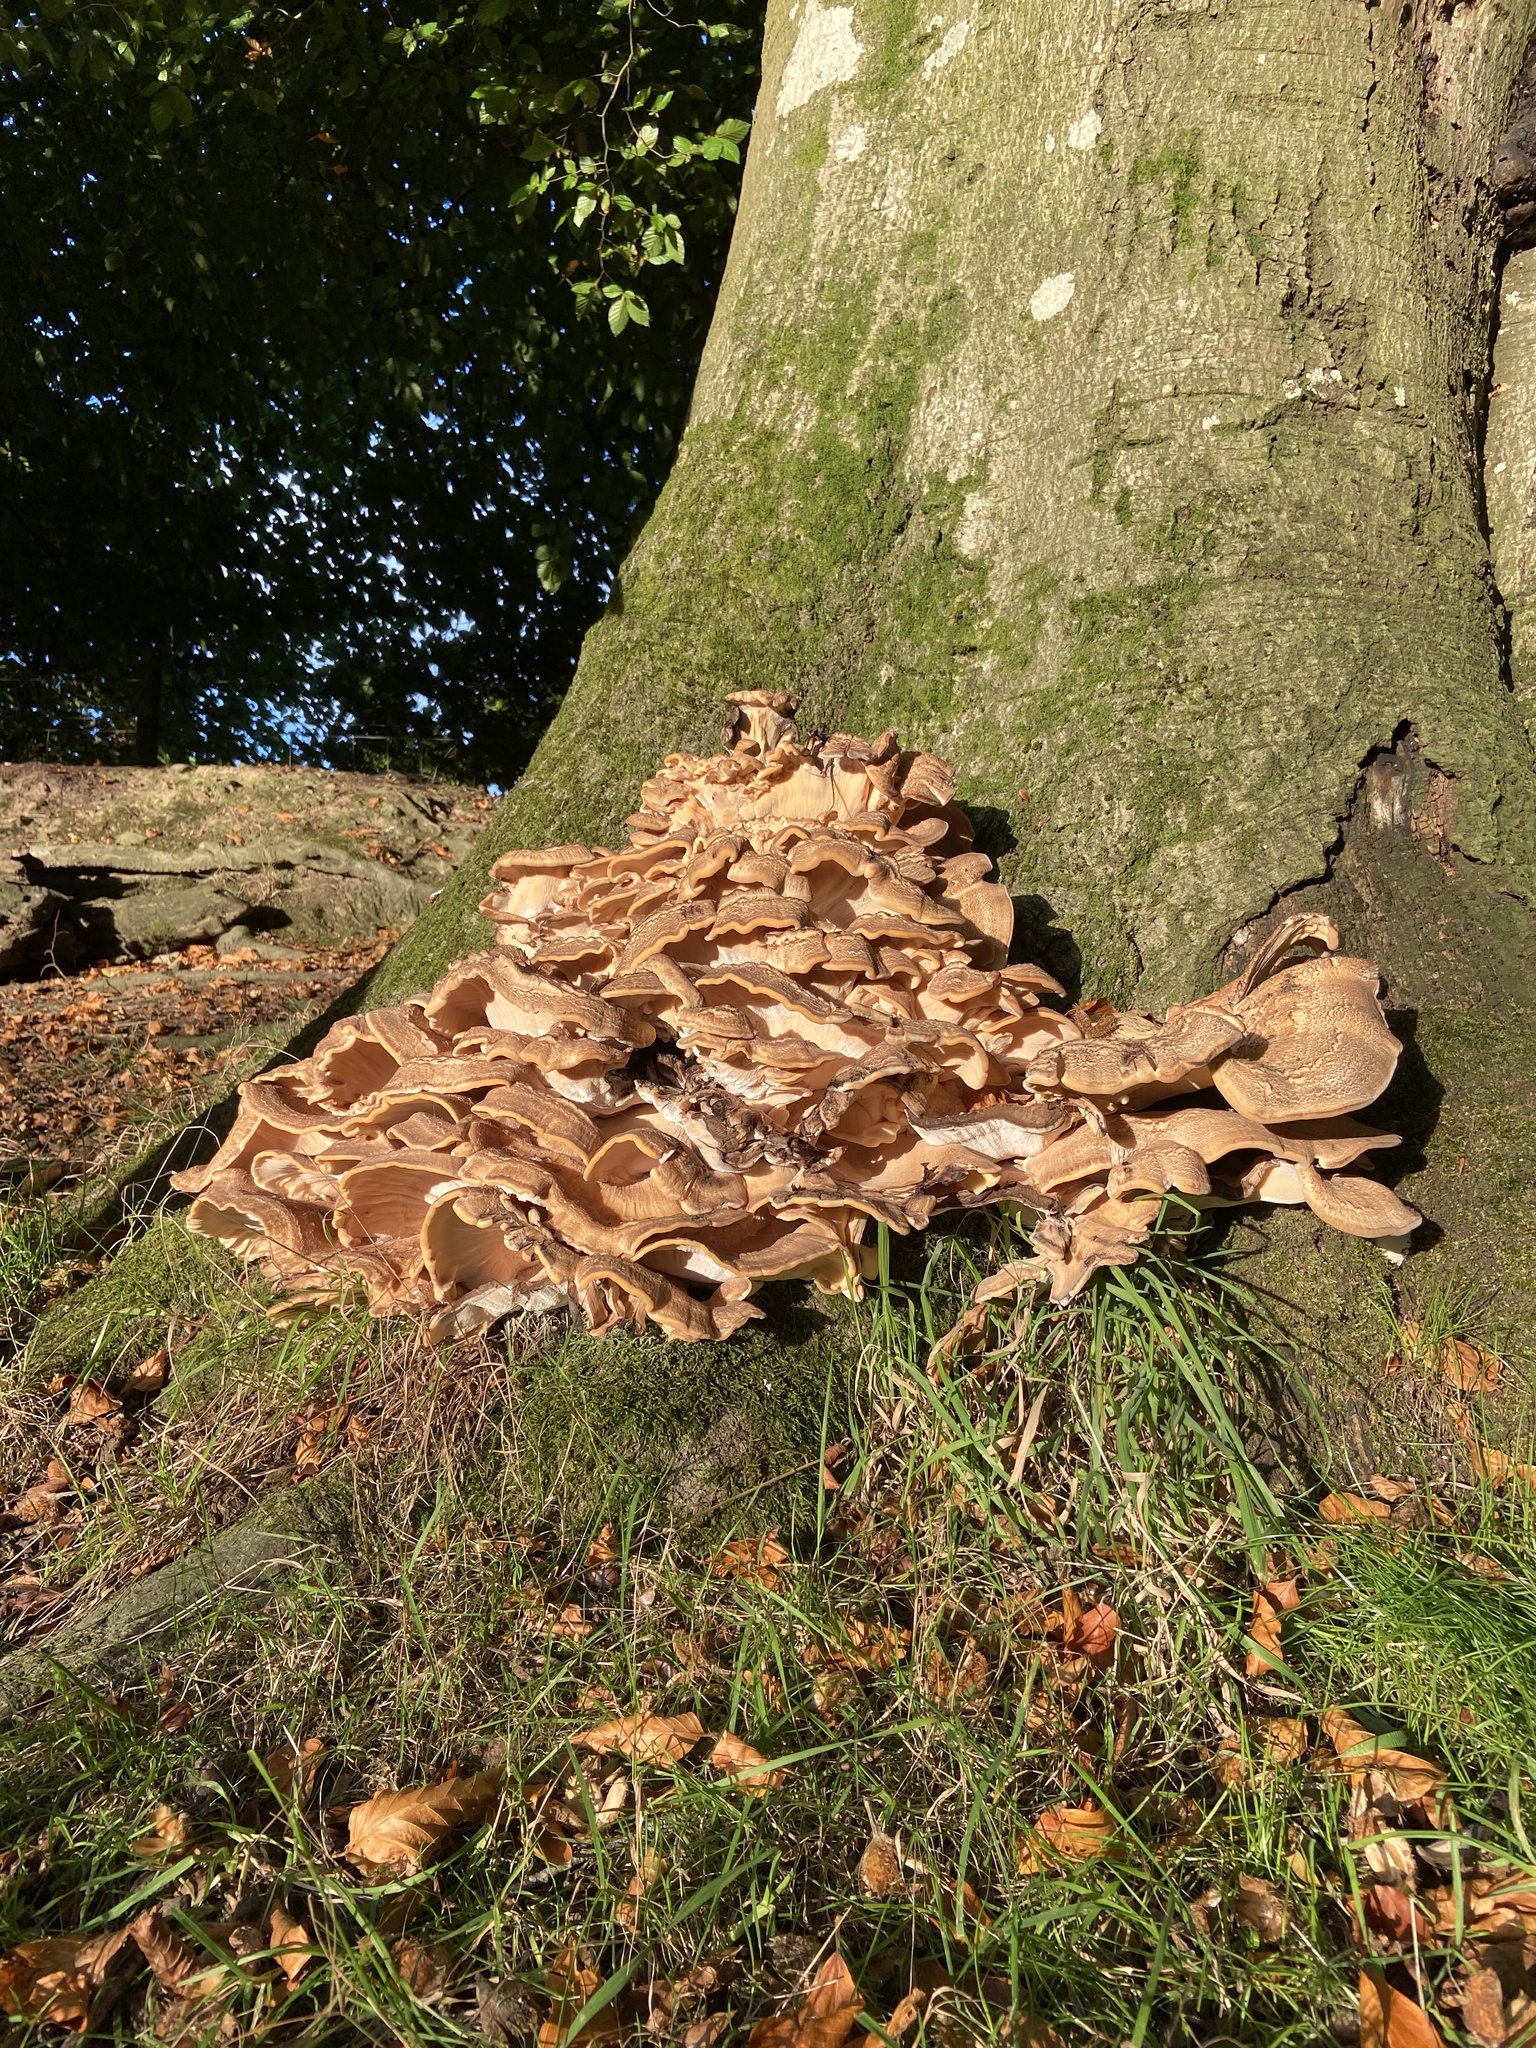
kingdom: Fungi
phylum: Basidiomycota
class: Agaricomycetes
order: Polyporales
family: Meripilaceae
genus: Meripilus
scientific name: Meripilus giganteus
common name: Giant polypore
